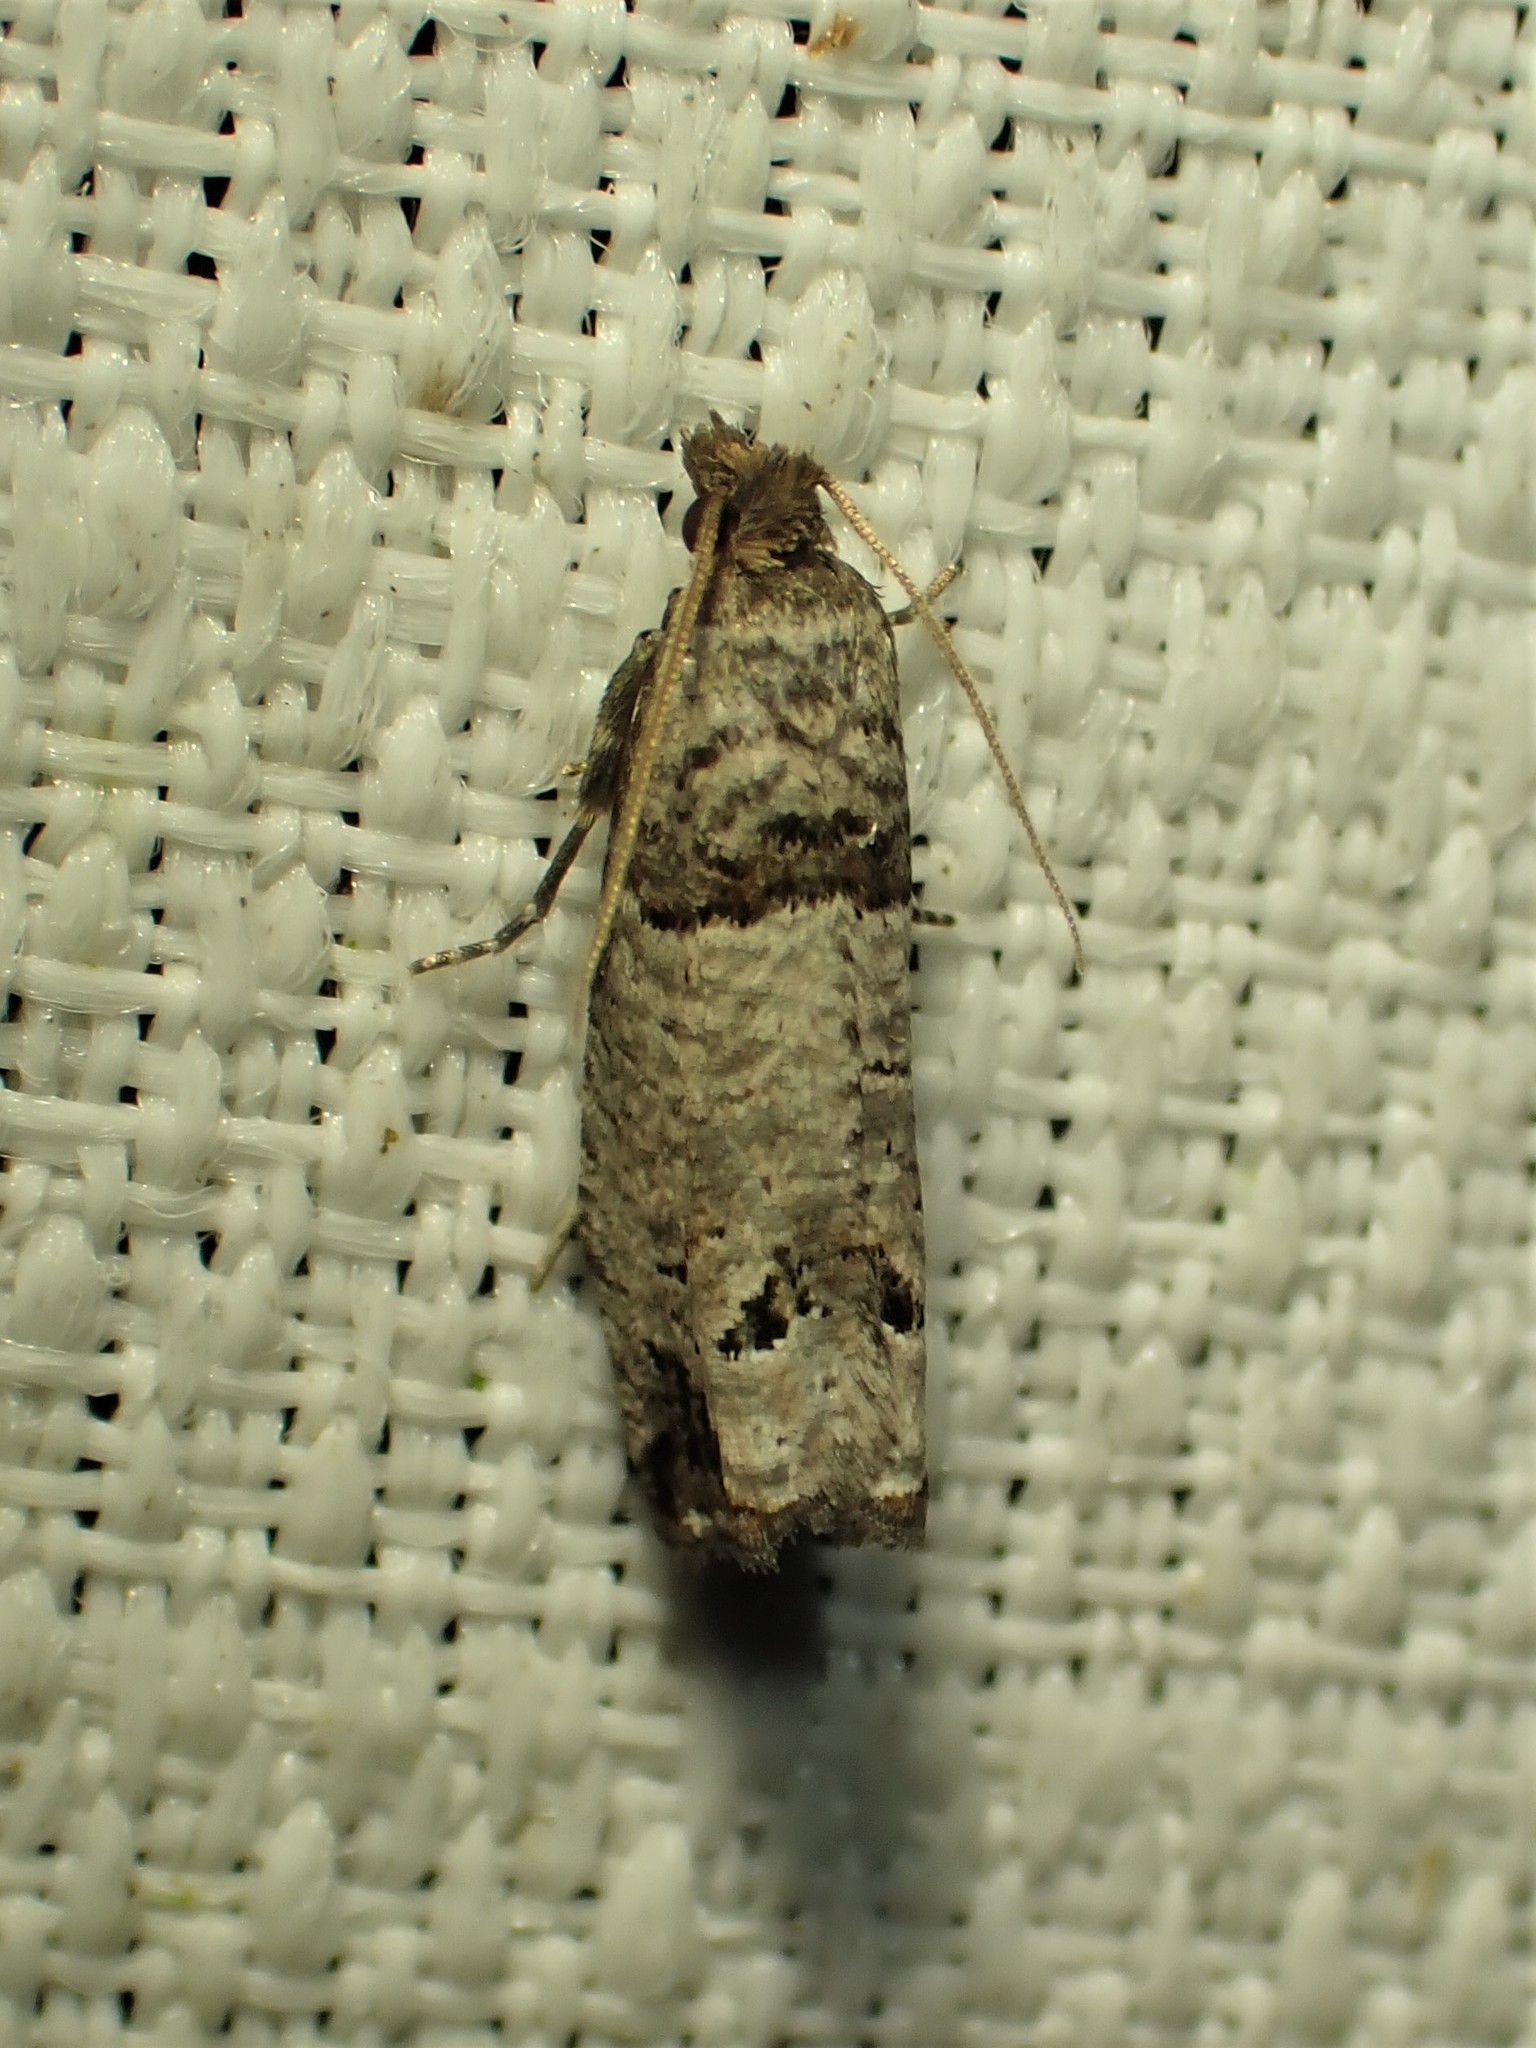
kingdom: Animalia
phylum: Arthropoda
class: Insecta
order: Lepidoptera
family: Tortricidae
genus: Notocelia
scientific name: Notocelia culminana
